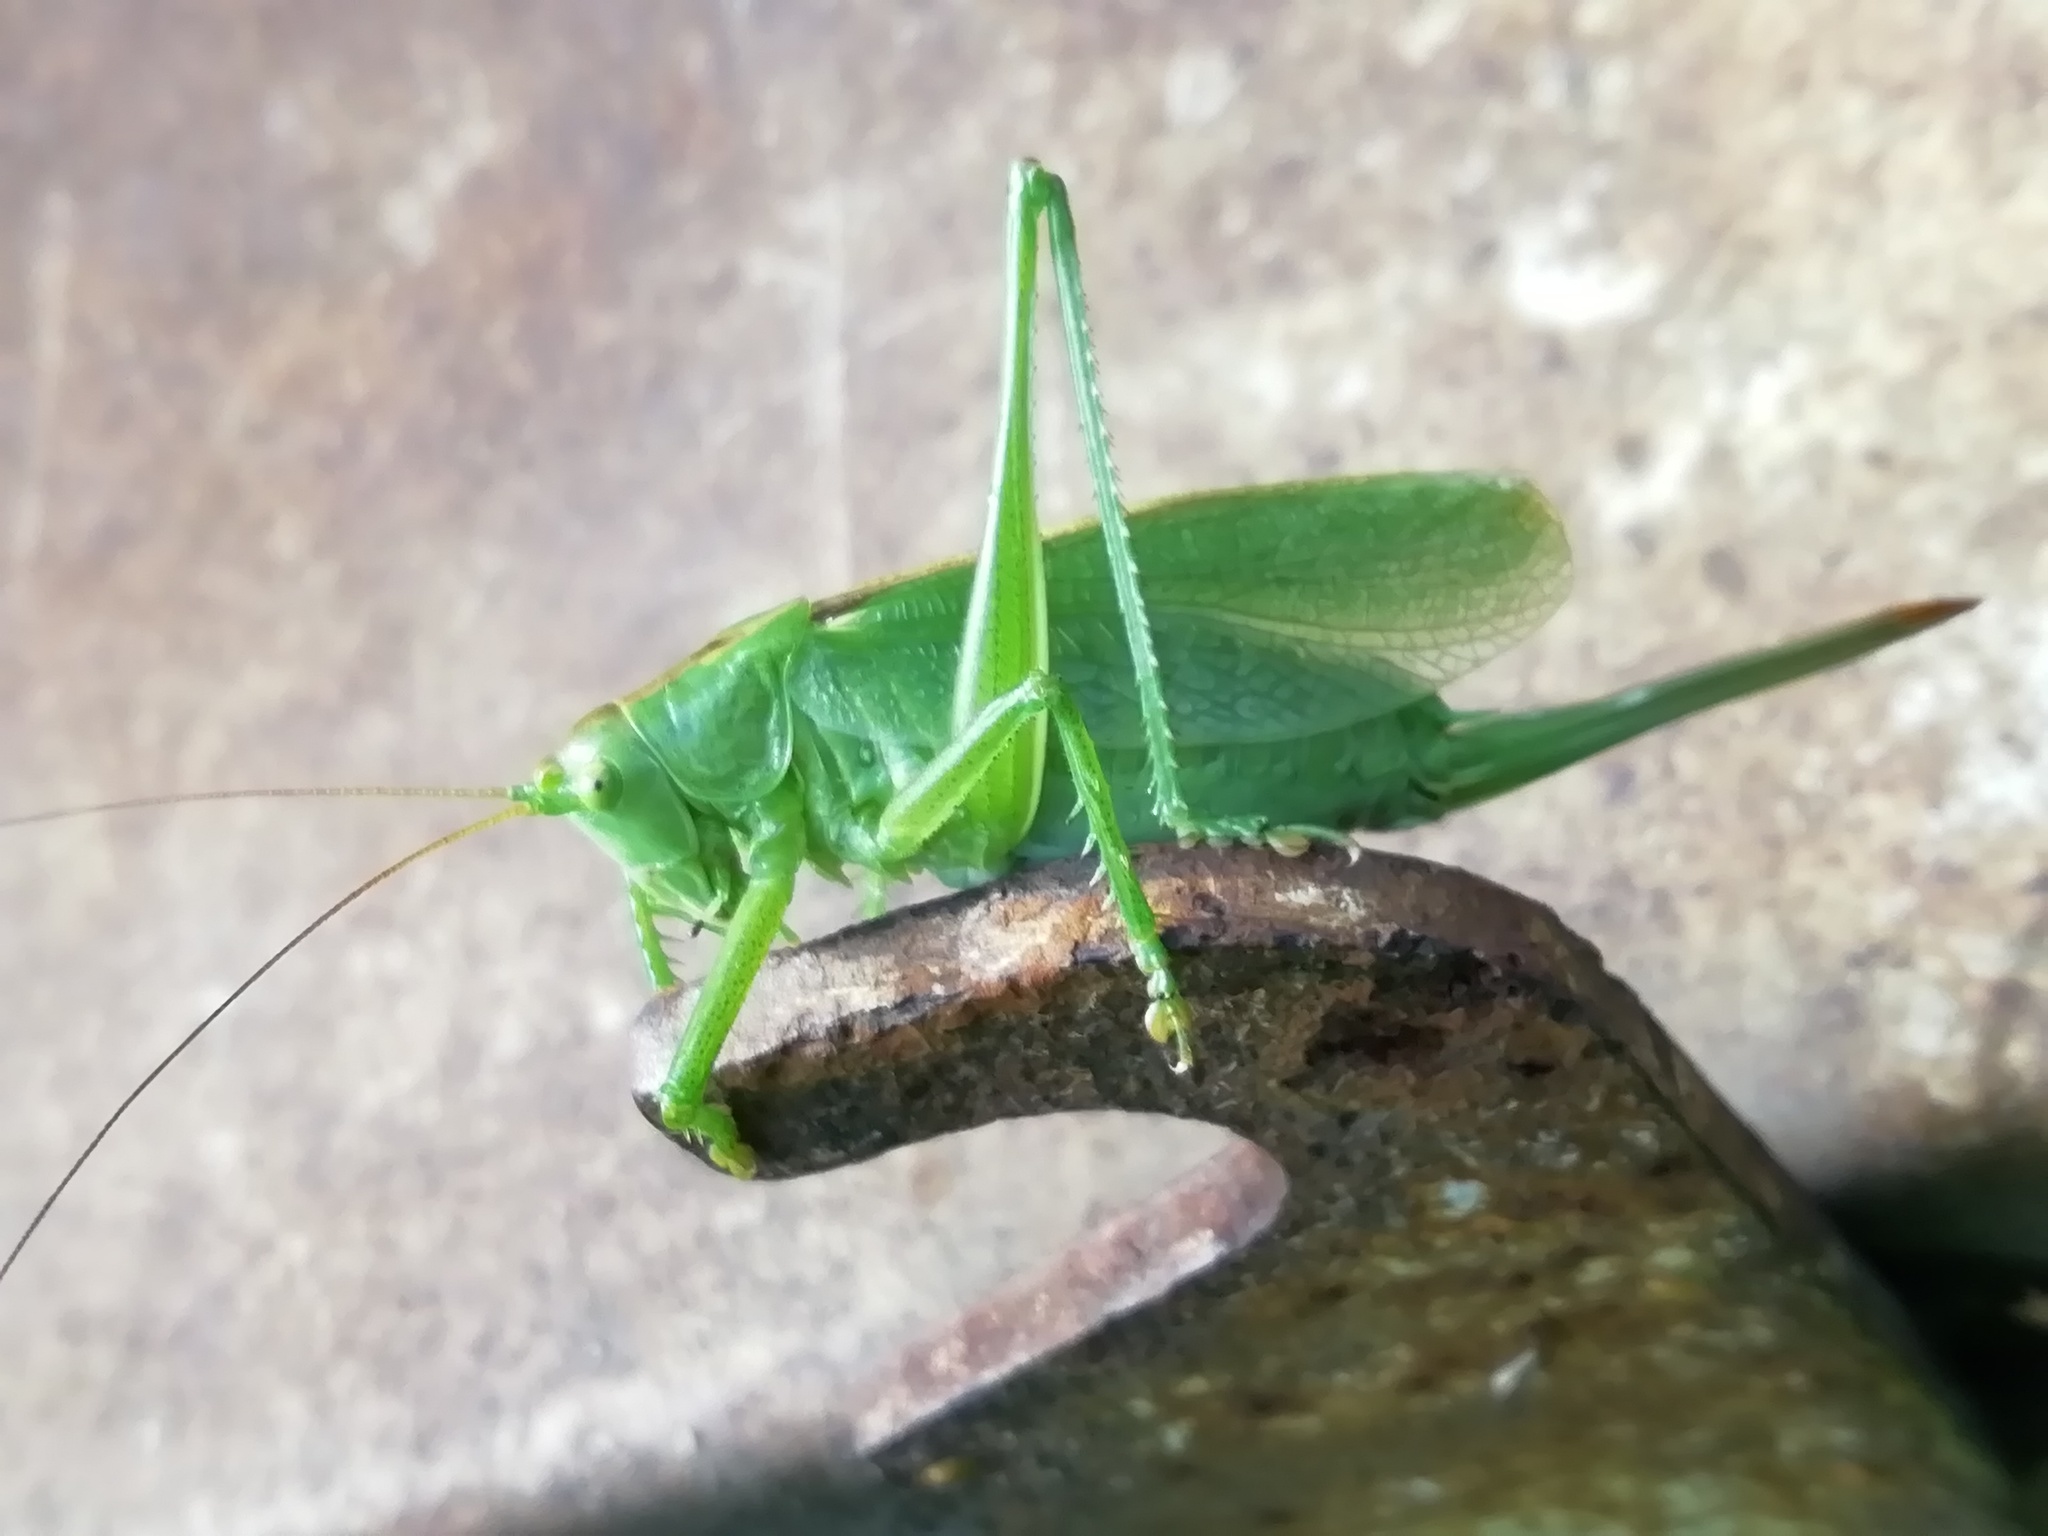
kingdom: Animalia
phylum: Arthropoda
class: Insecta
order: Orthoptera
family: Tettigoniidae
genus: Tettigonia
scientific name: Tettigonia cantans
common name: Upland green bush-cricket
